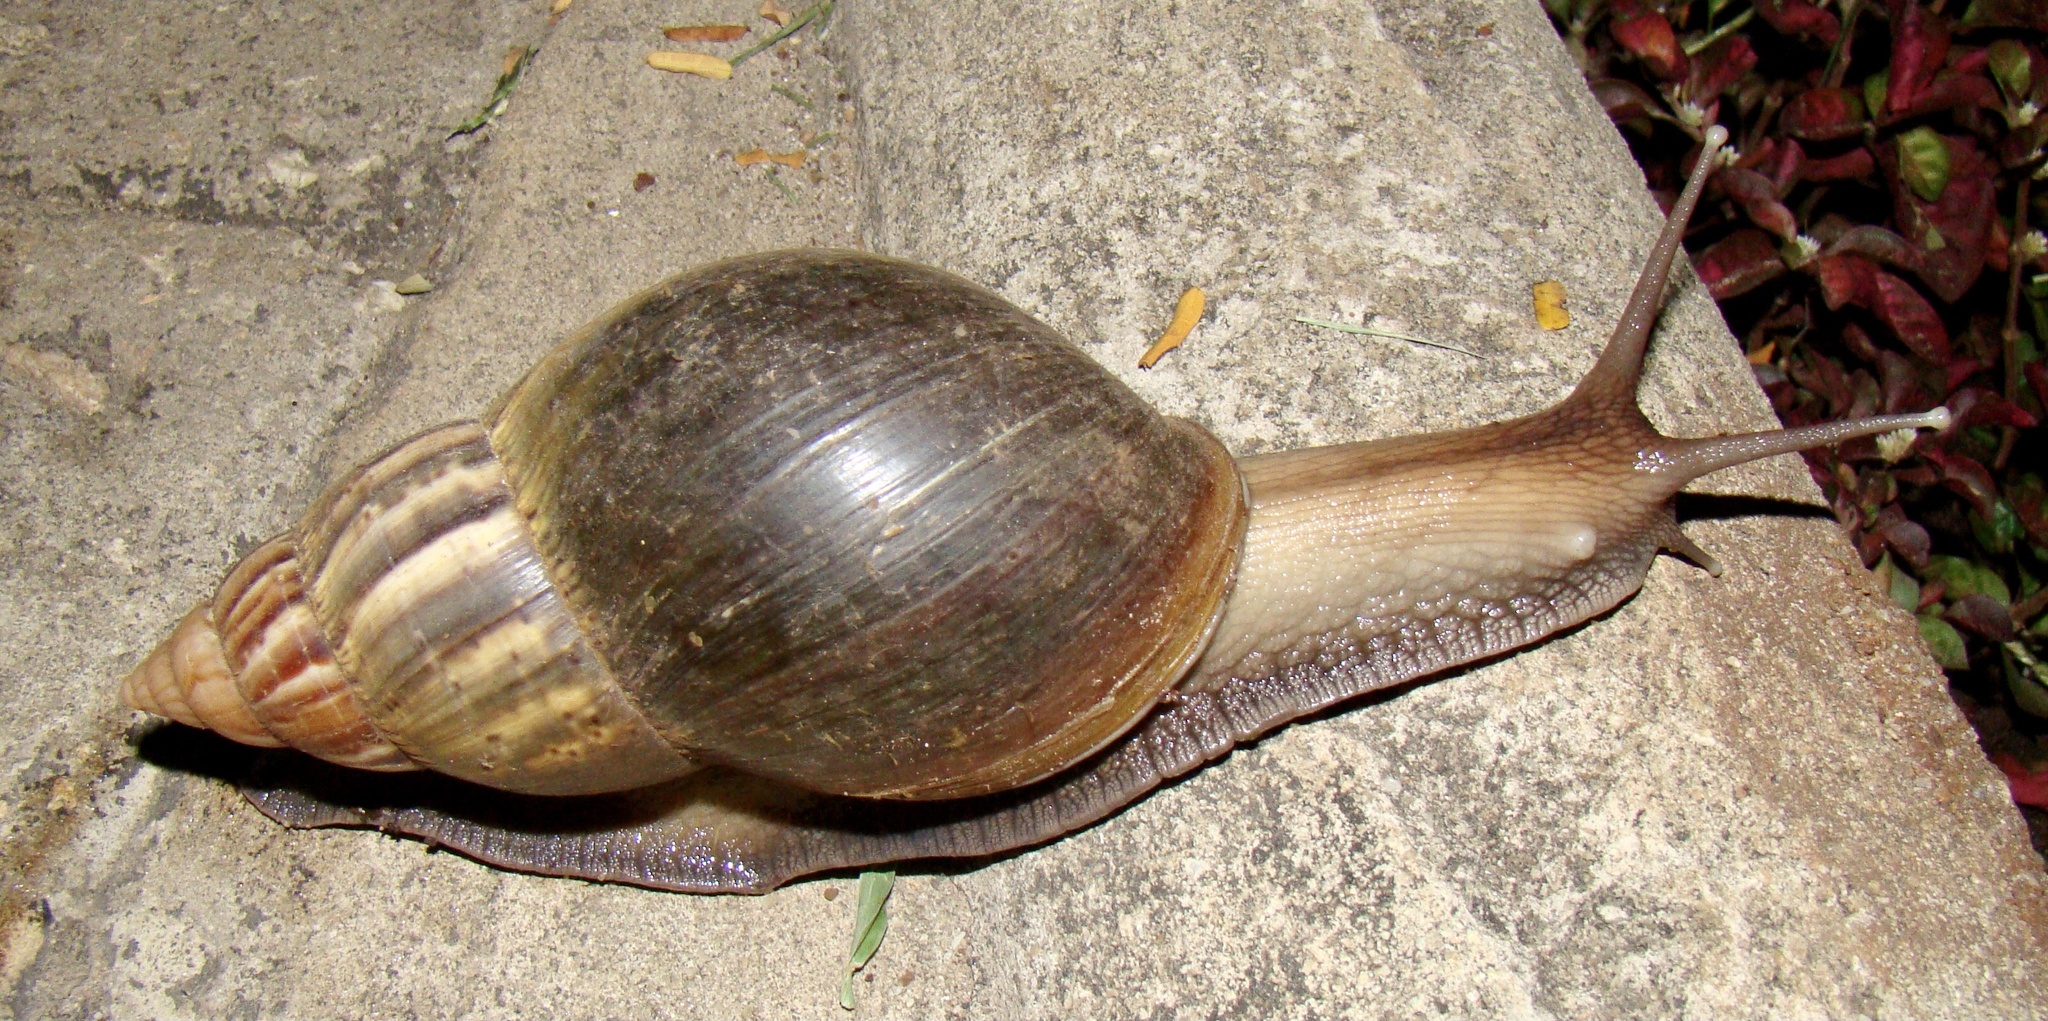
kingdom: Animalia
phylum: Mollusca
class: Gastropoda
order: Stylommatophora
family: Achatinidae
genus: Lissachatina
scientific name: Lissachatina fulica
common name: Giant african snail
